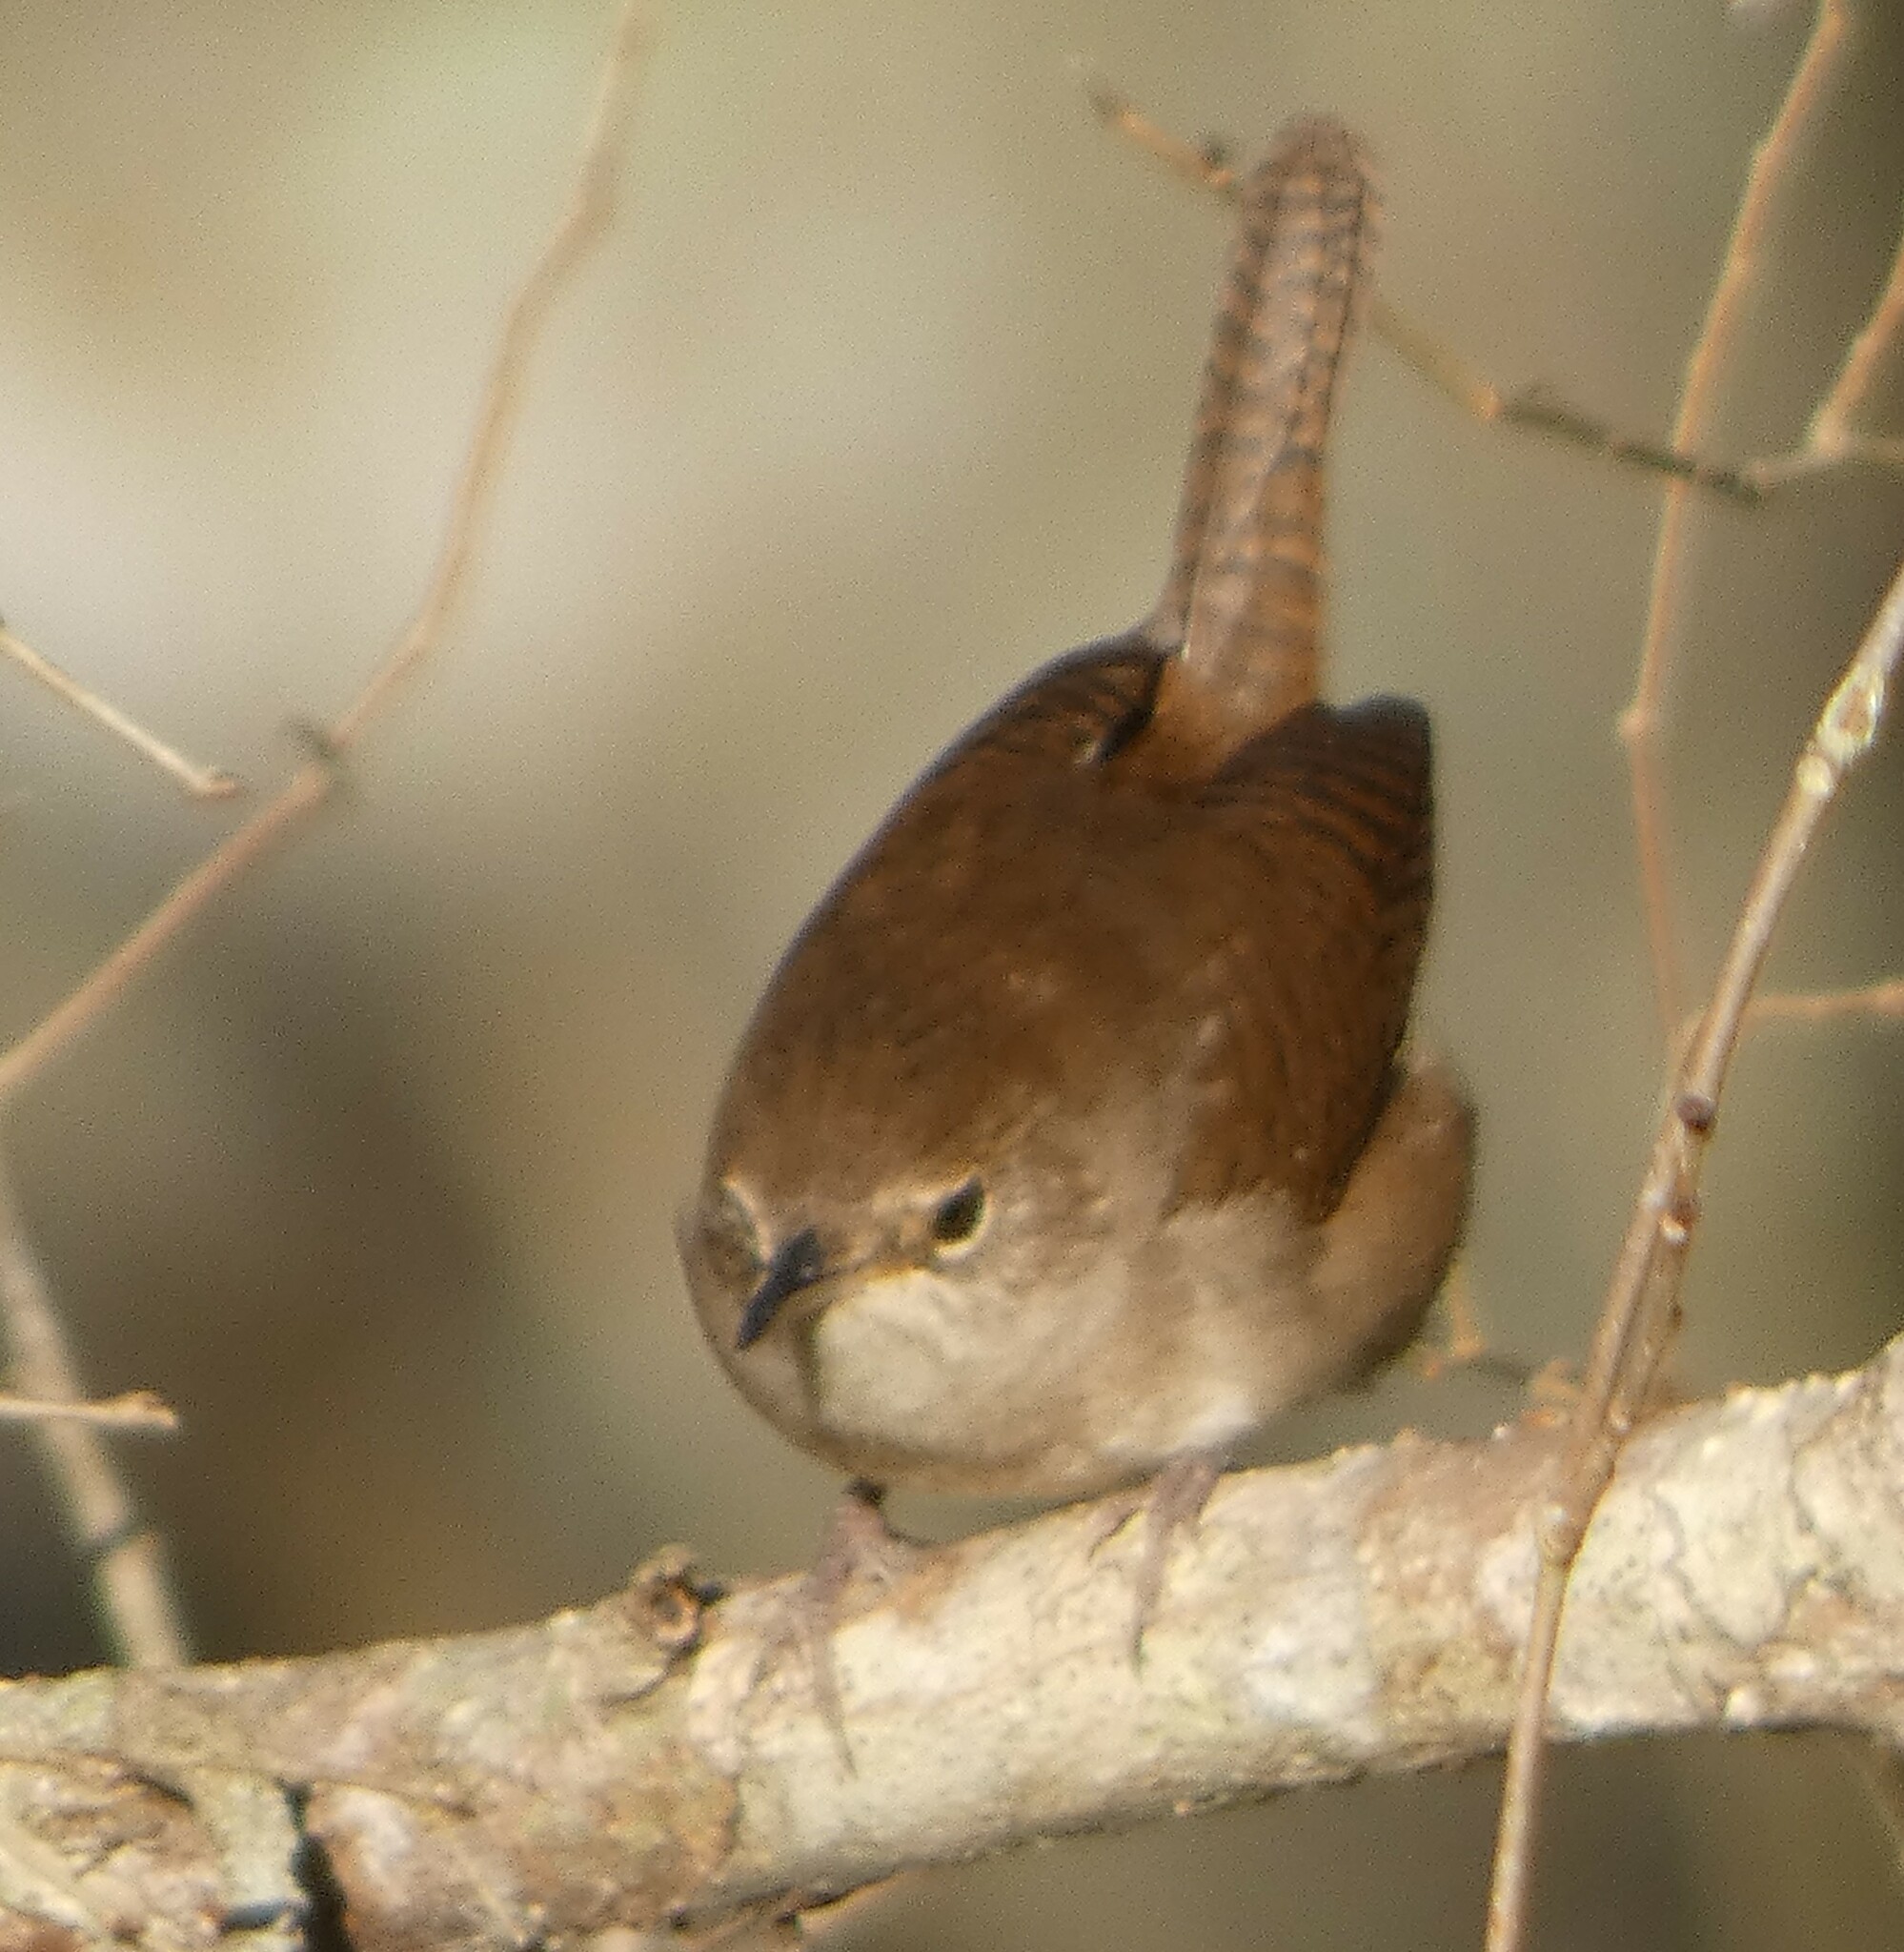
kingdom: Animalia
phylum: Chordata
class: Aves
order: Passeriformes
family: Troglodytidae
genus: Troglodytes
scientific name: Troglodytes aedon
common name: House wren
